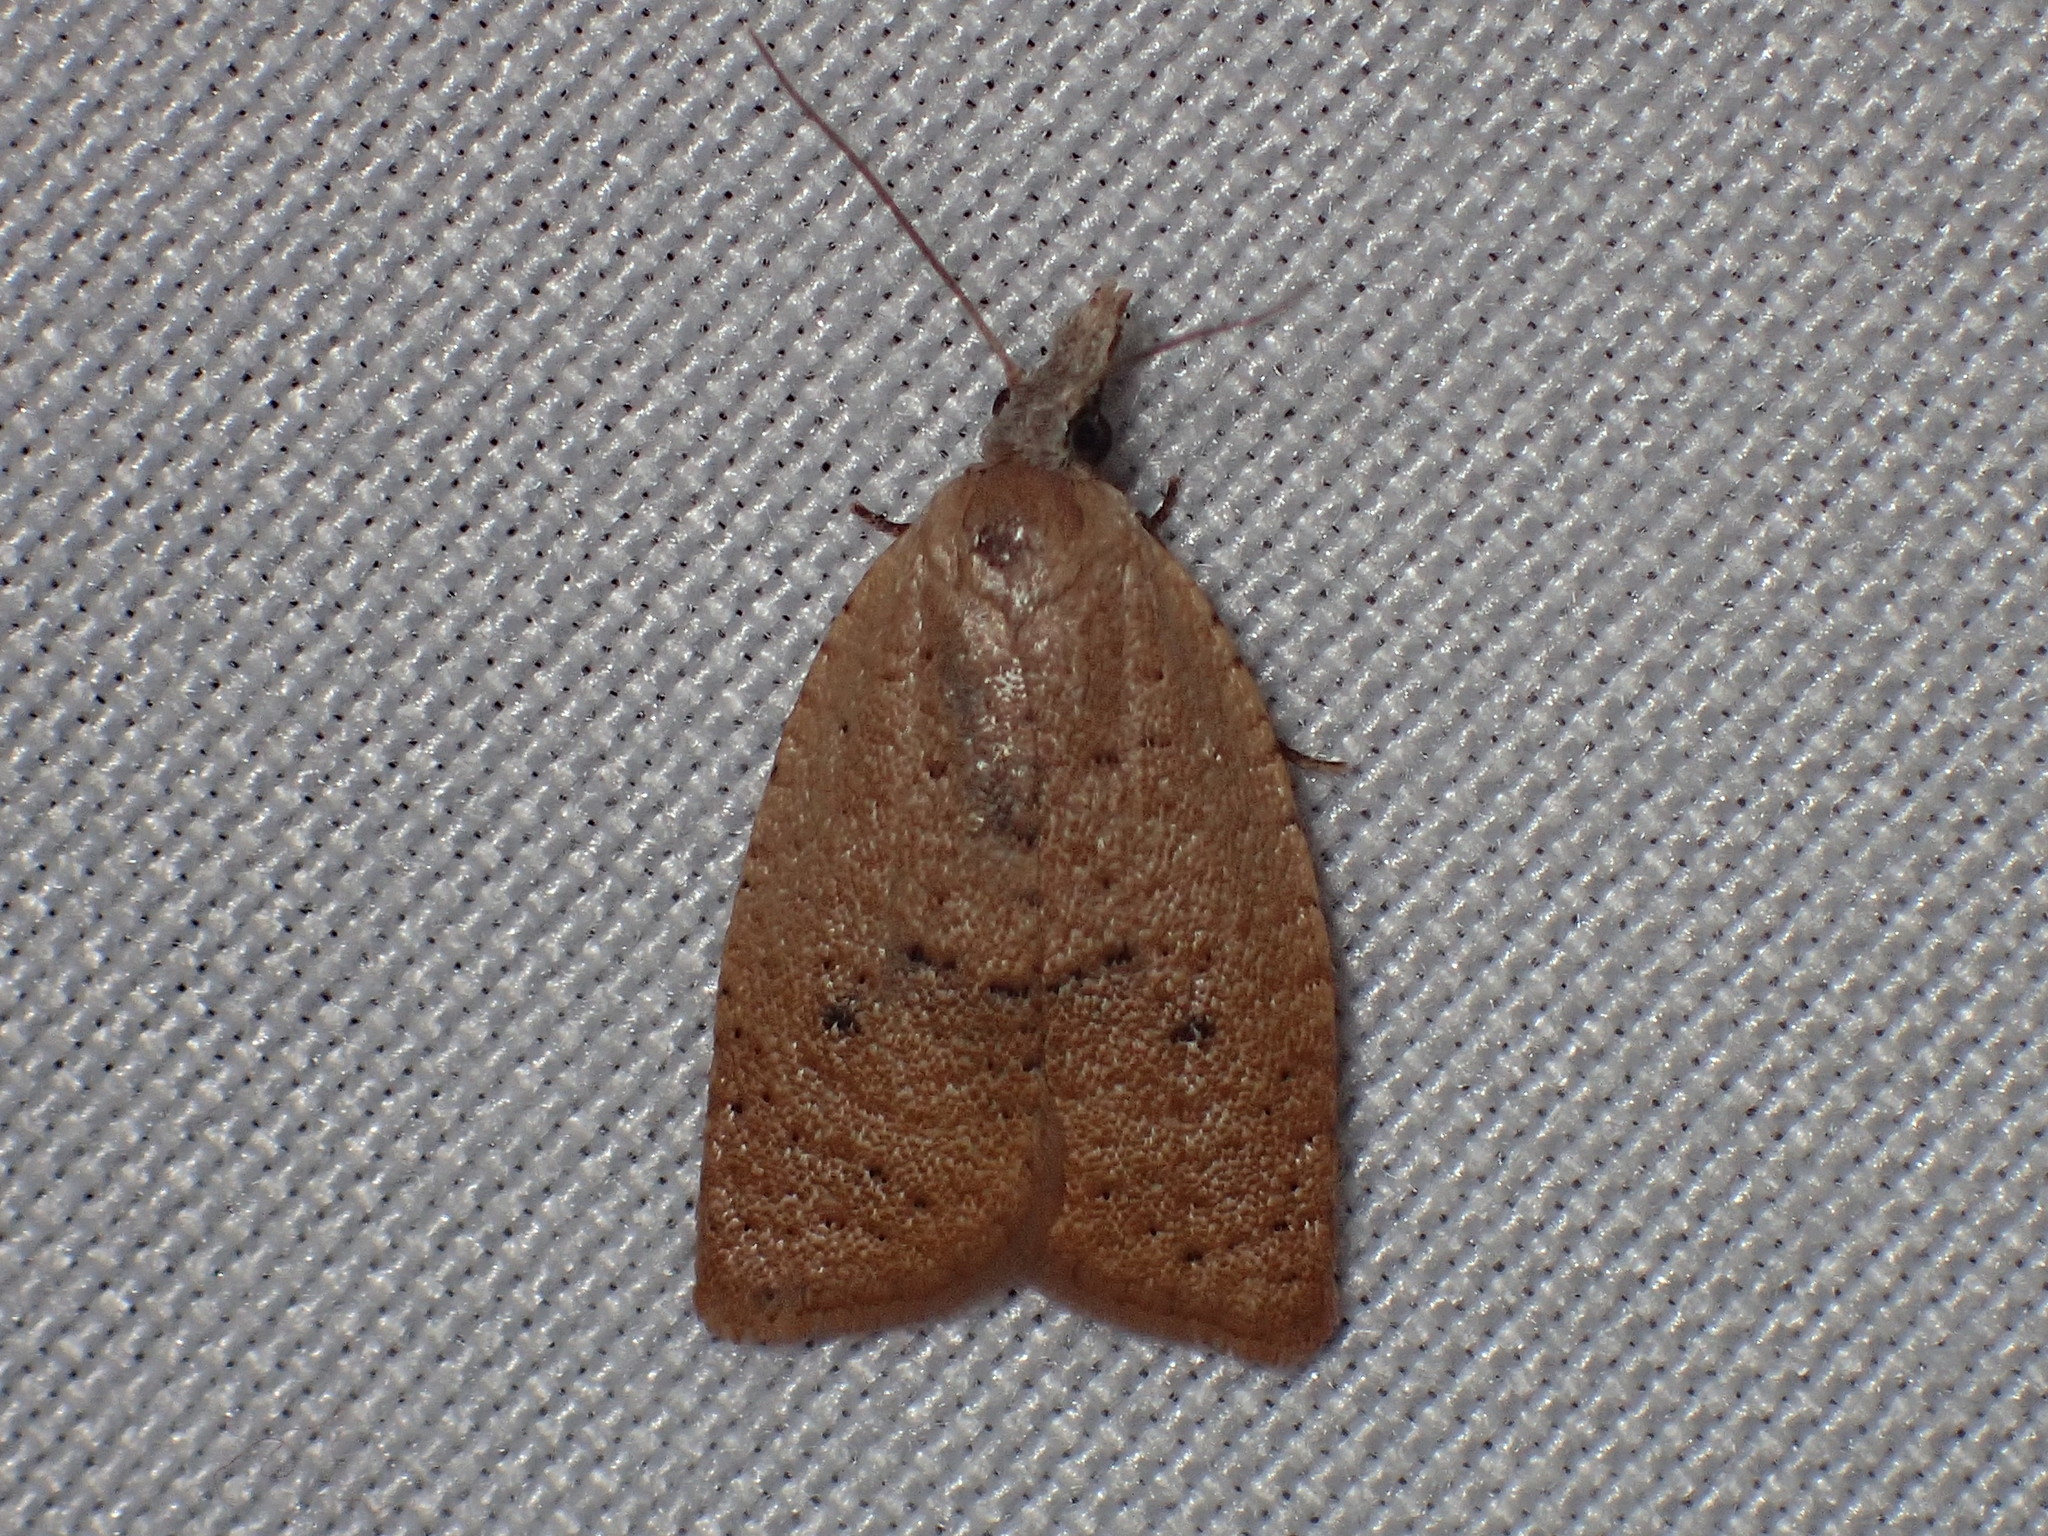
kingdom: Animalia
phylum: Arthropoda
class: Insecta
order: Lepidoptera
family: Tortricidae
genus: Sparganothoides
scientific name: Sparganothoides lentiginosana
